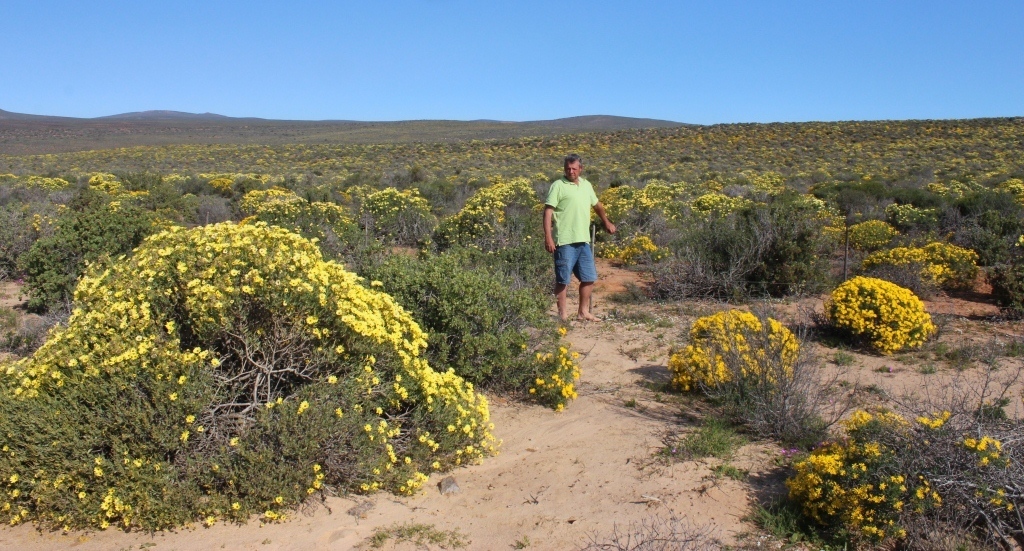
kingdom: Plantae
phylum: Tracheophyta
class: Magnoliopsida
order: Asterales
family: Asteraceae
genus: Verbesina
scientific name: Verbesina encelioides
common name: Golden crownbeard
